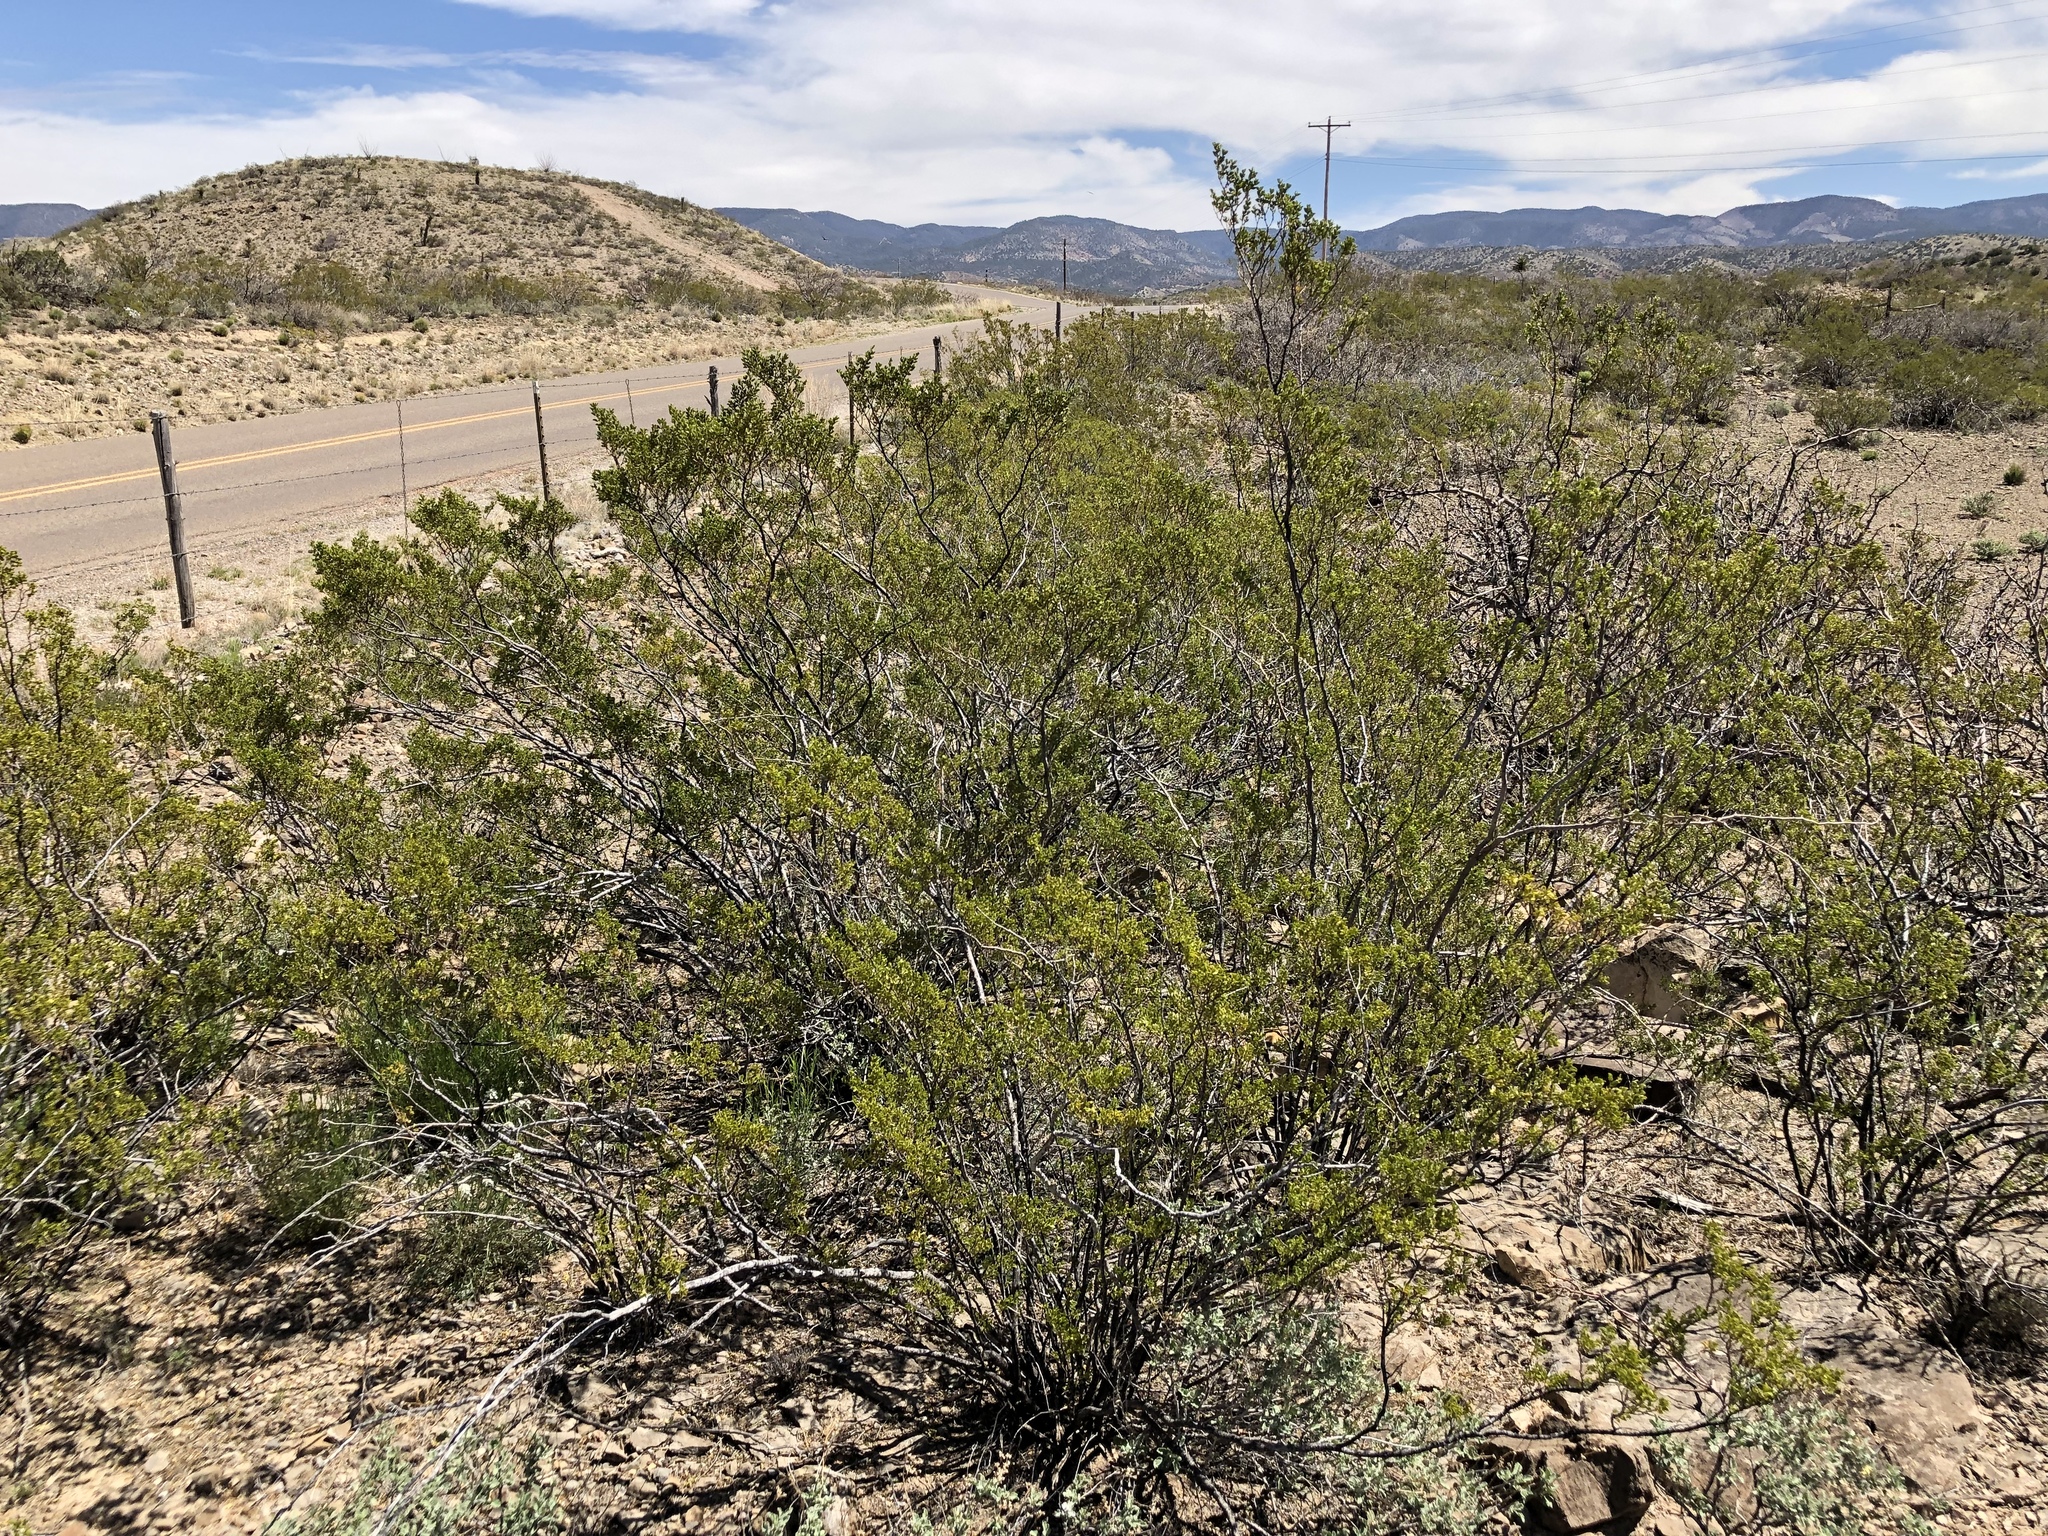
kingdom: Plantae
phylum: Tracheophyta
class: Magnoliopsida
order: Zygophyllales
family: Zygophyllaceae
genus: Larrea
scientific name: Larrea tridentata
